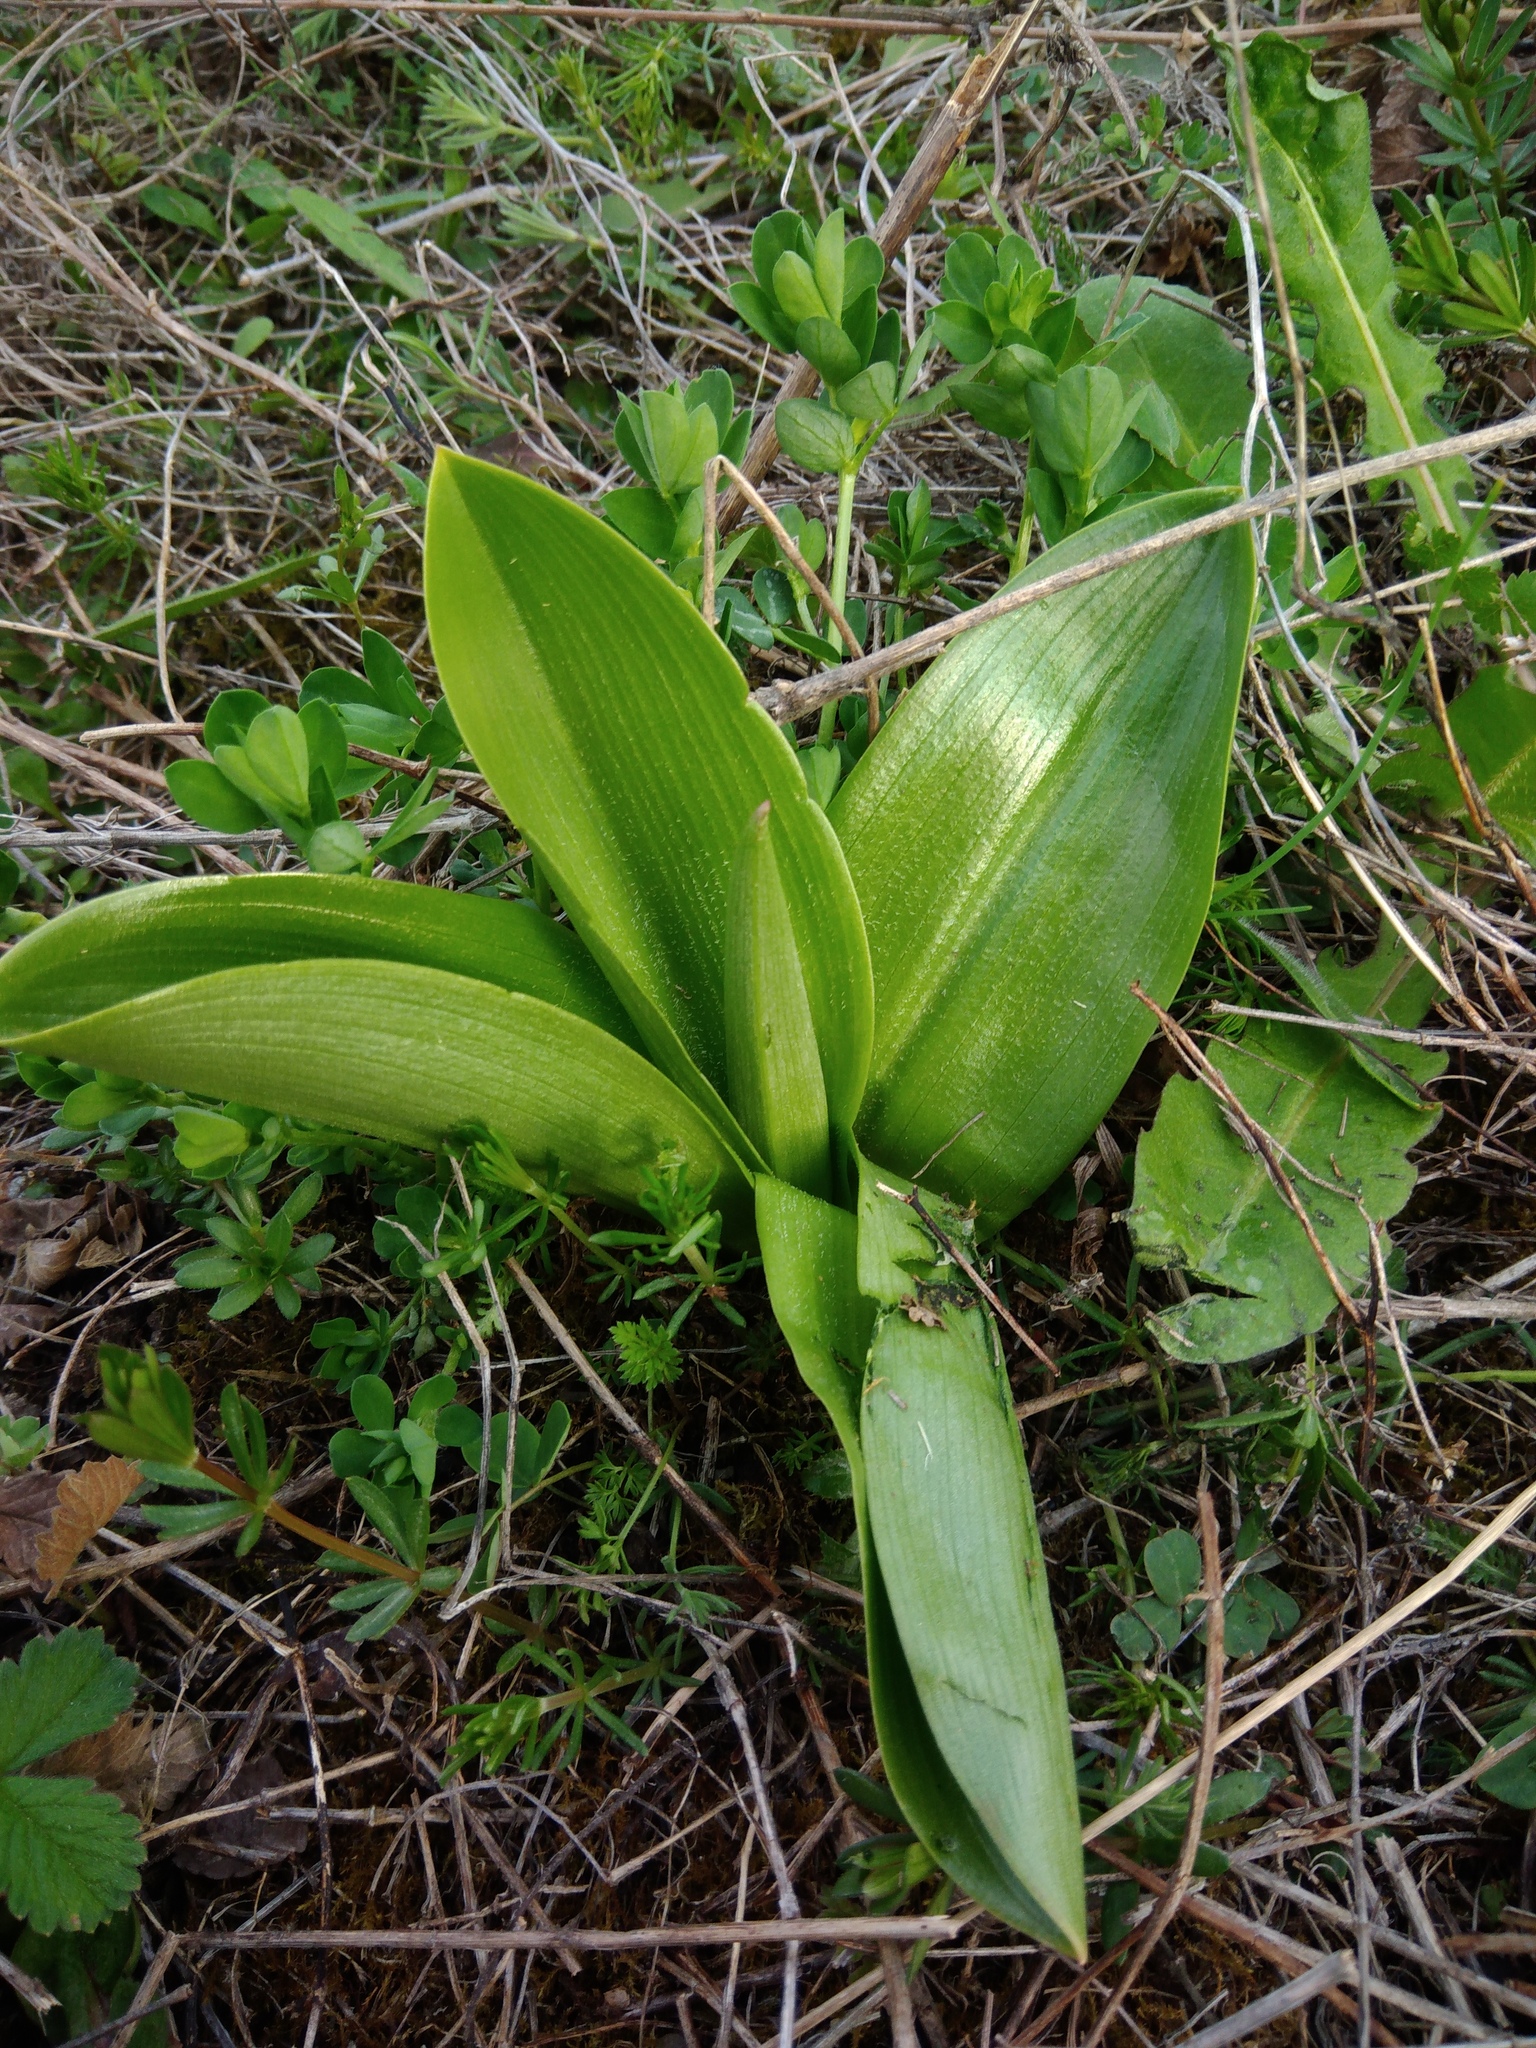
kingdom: Plantae
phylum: Tracheophyta
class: Liliopsida
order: Asparagales
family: Orchidaceae
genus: Orchis
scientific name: Orchis militaris
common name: Military orchid
